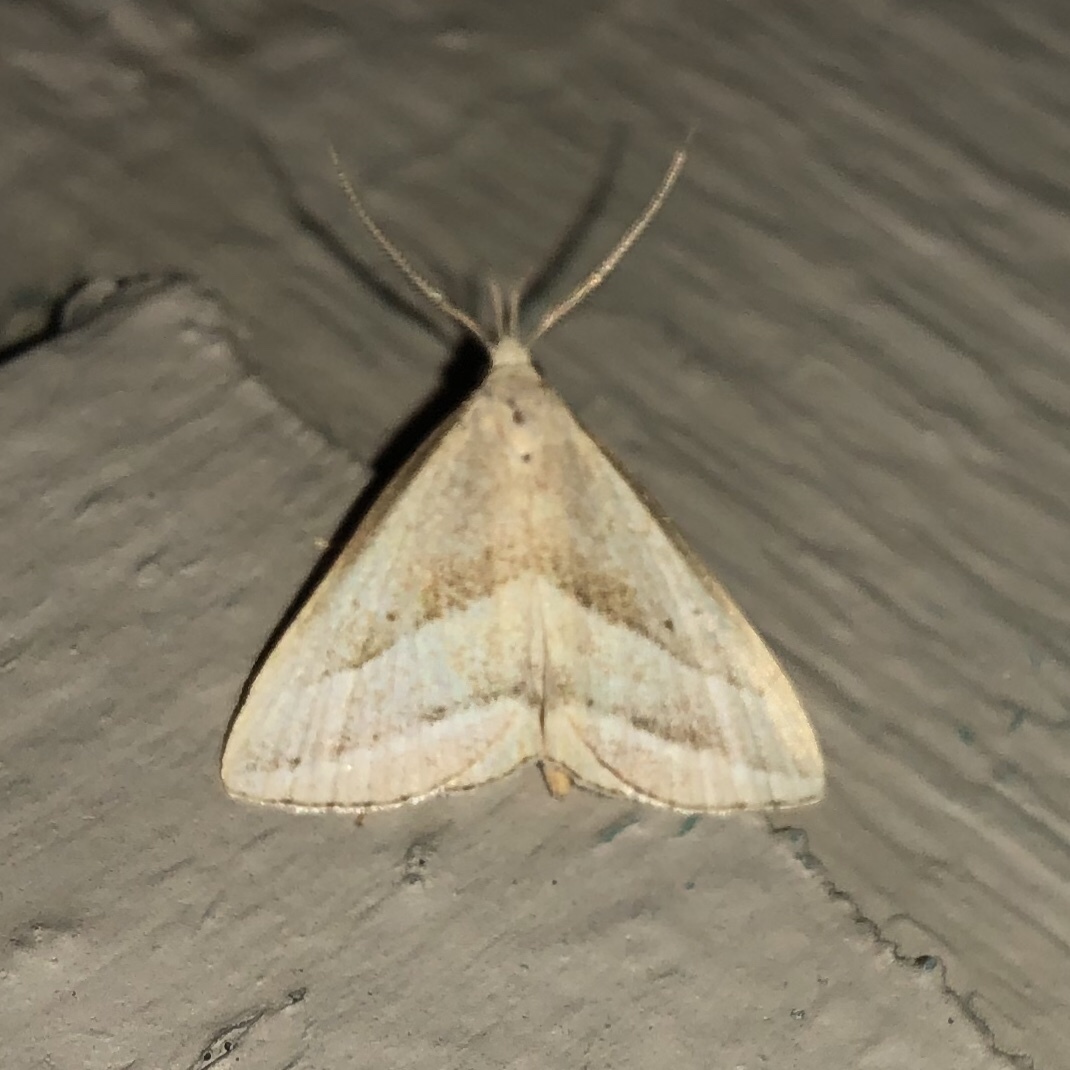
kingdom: Animalia
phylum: Arthropoda
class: Insecta
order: Lepidoptera
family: Erebidae
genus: Macrochilo
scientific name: Macrochilo absorptalis
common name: Slant-lined owlet
